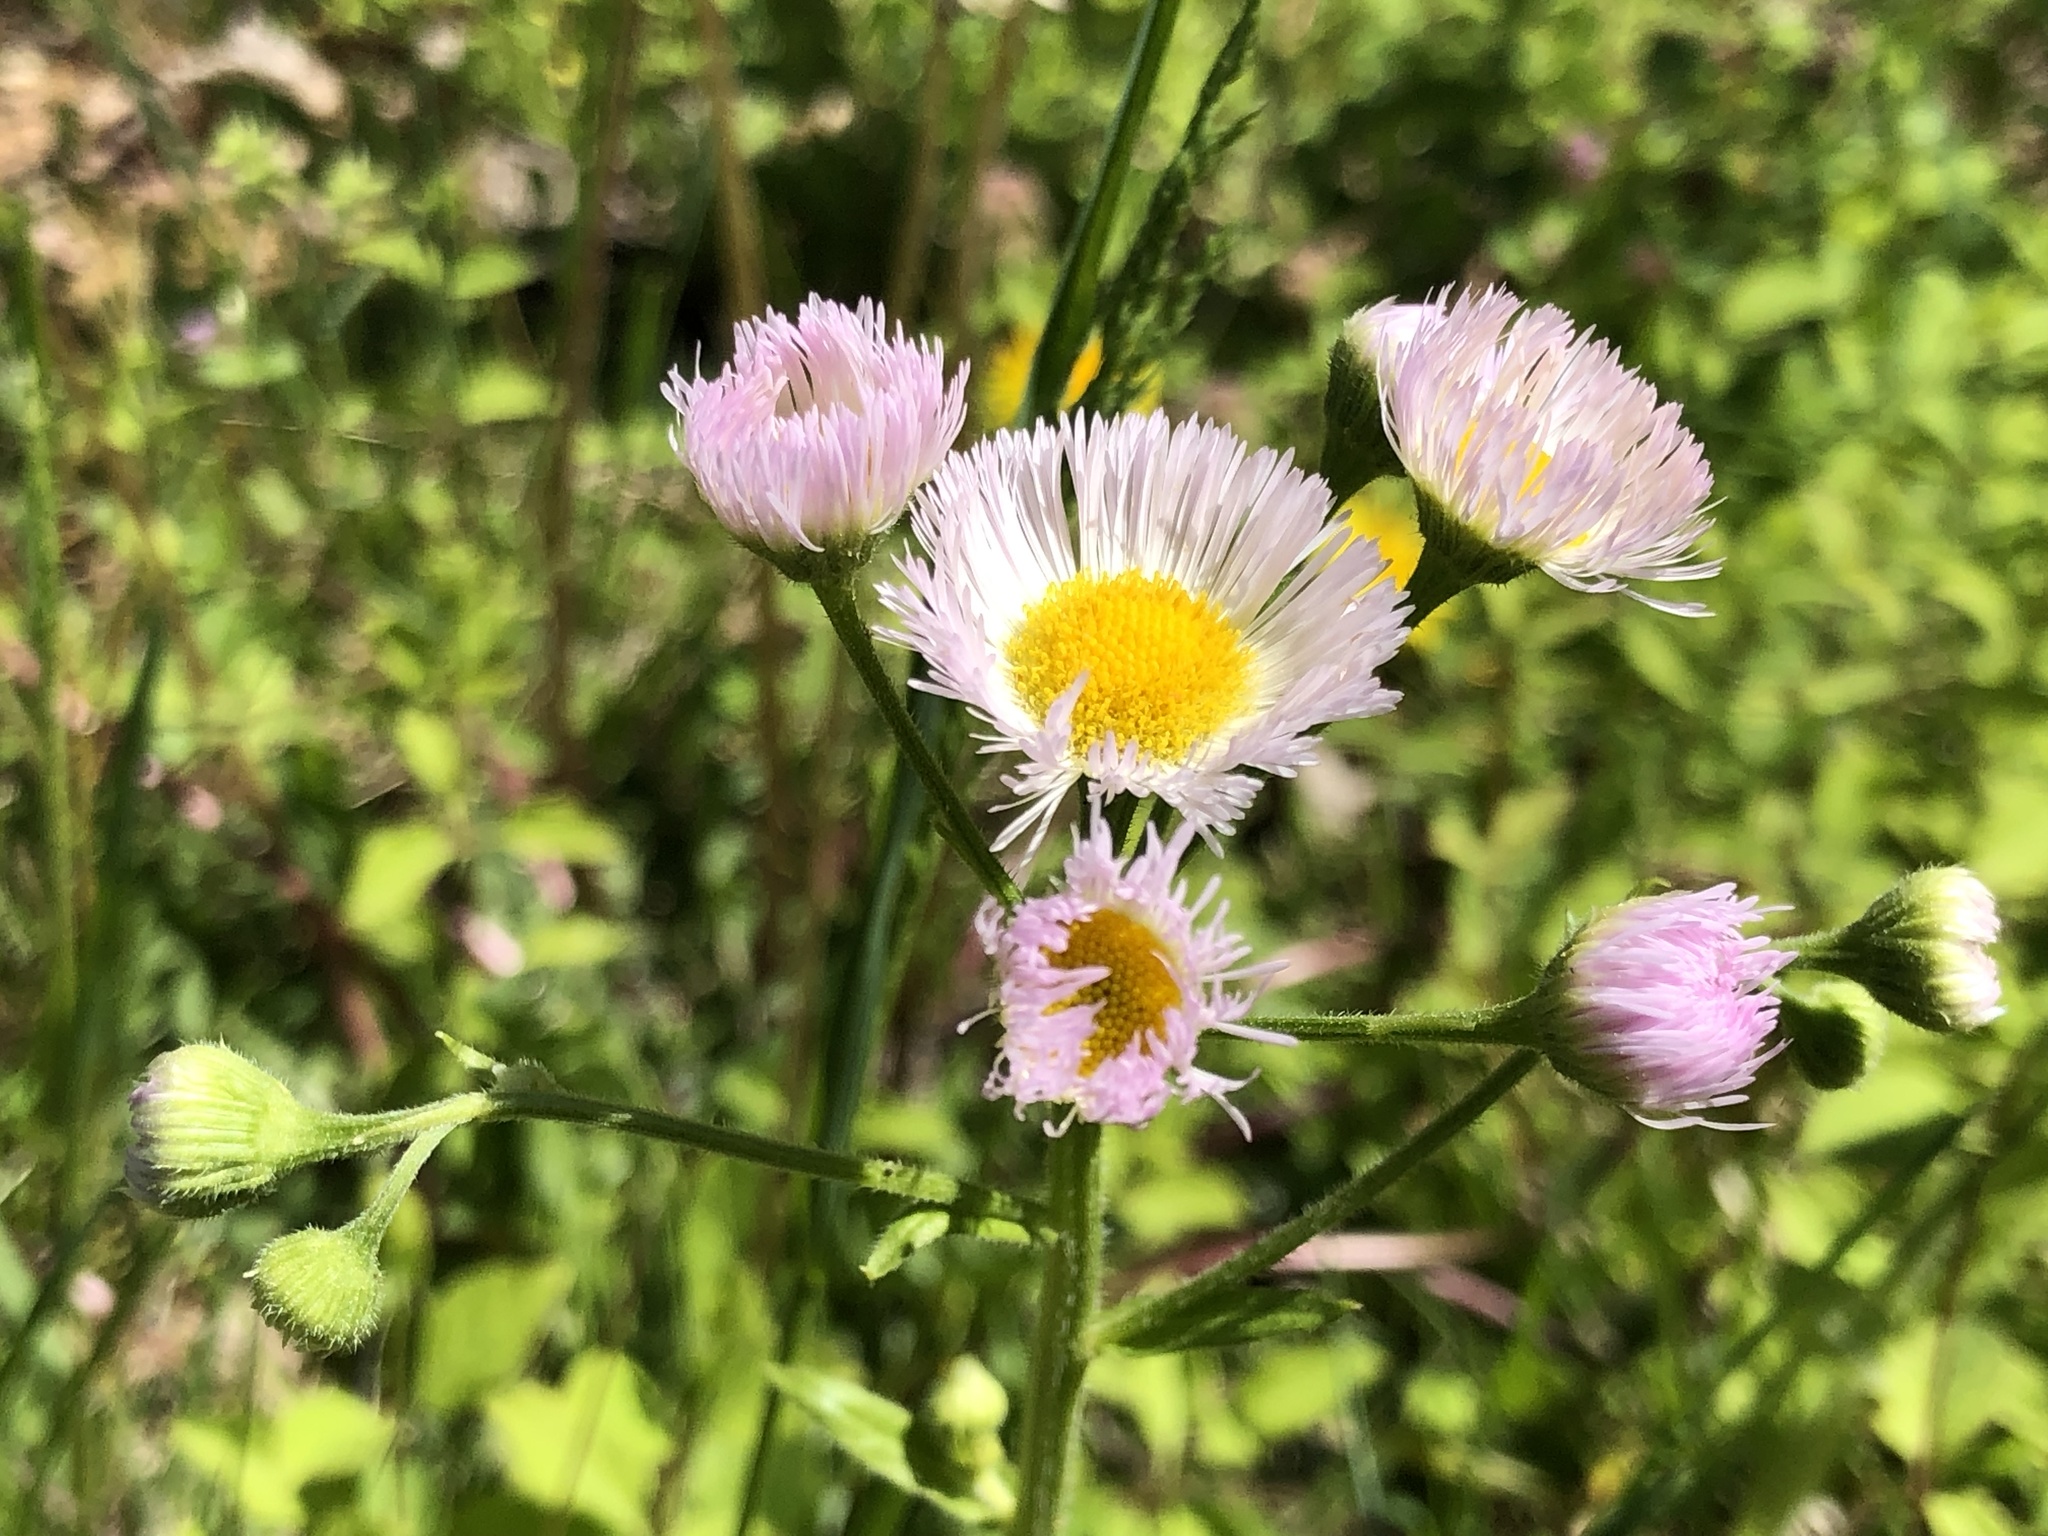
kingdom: Plantae
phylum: Tracheophyta
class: Magnoliopsida
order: Asterales
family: Asteraceae
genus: Erigeron
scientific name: Erigeron philadelphicus
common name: Robin's-plantain
